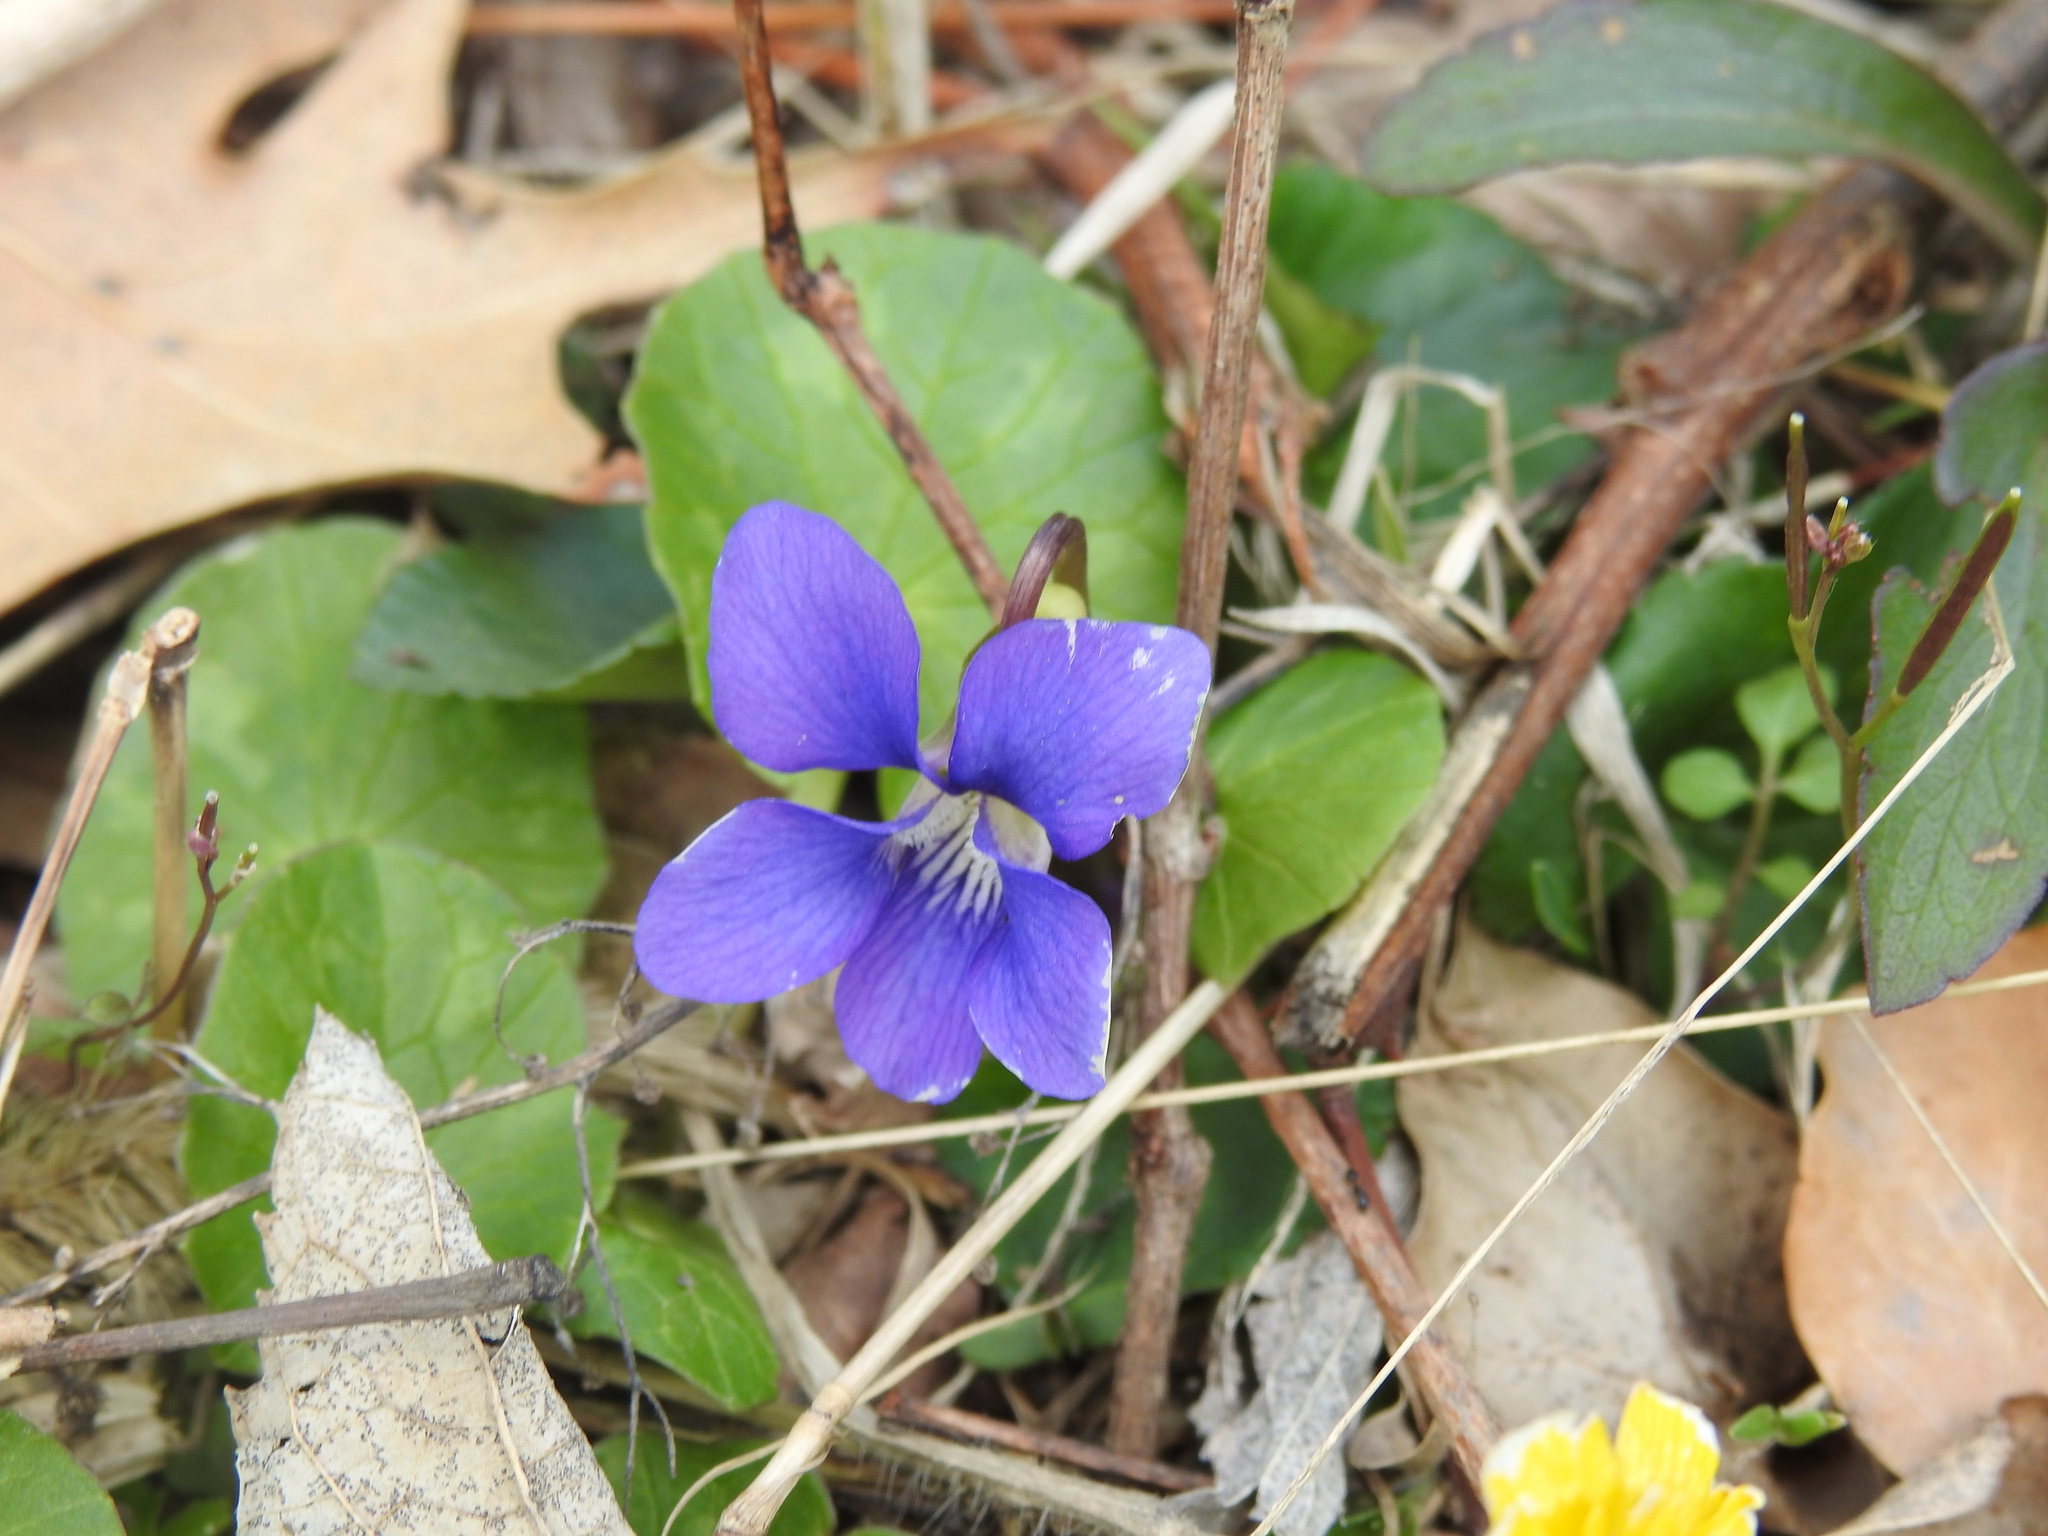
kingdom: Plantae
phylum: Tracheophyta
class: Magnoliopsida
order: Malpighiales
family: Violaceae
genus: Viola
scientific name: Viola sororia
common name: Dooryard violet
